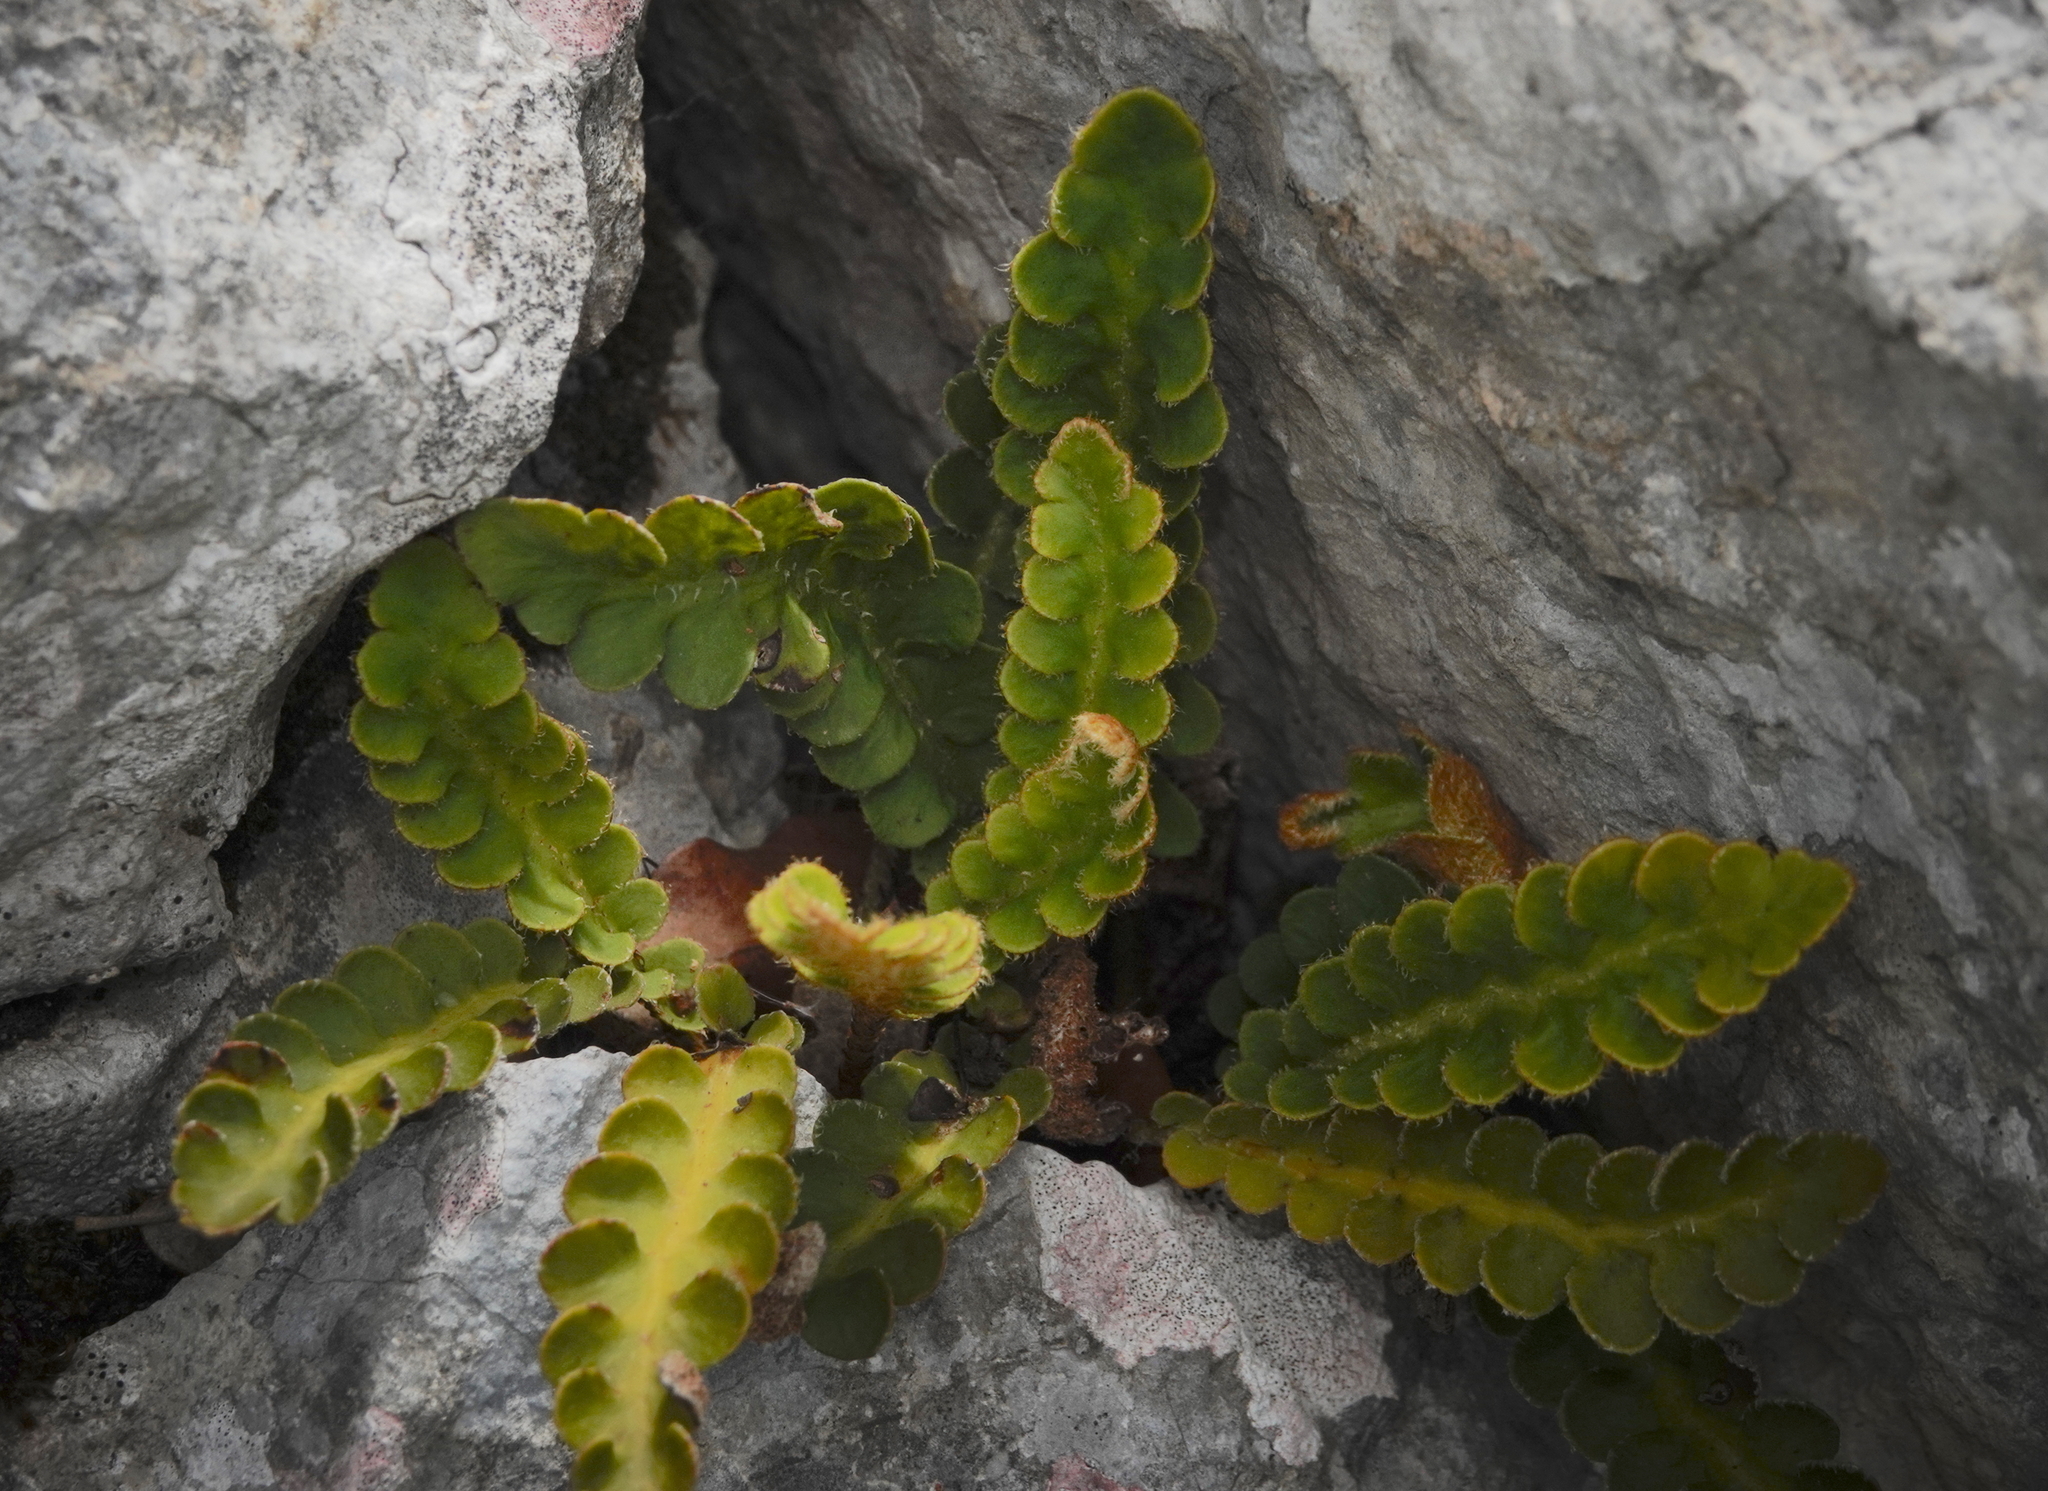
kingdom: Plantae
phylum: Tracheophyta
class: Polypodiopsida
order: Polypodiales
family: Aspleniaceae
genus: Asplenium
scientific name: Asplenium ceterach
